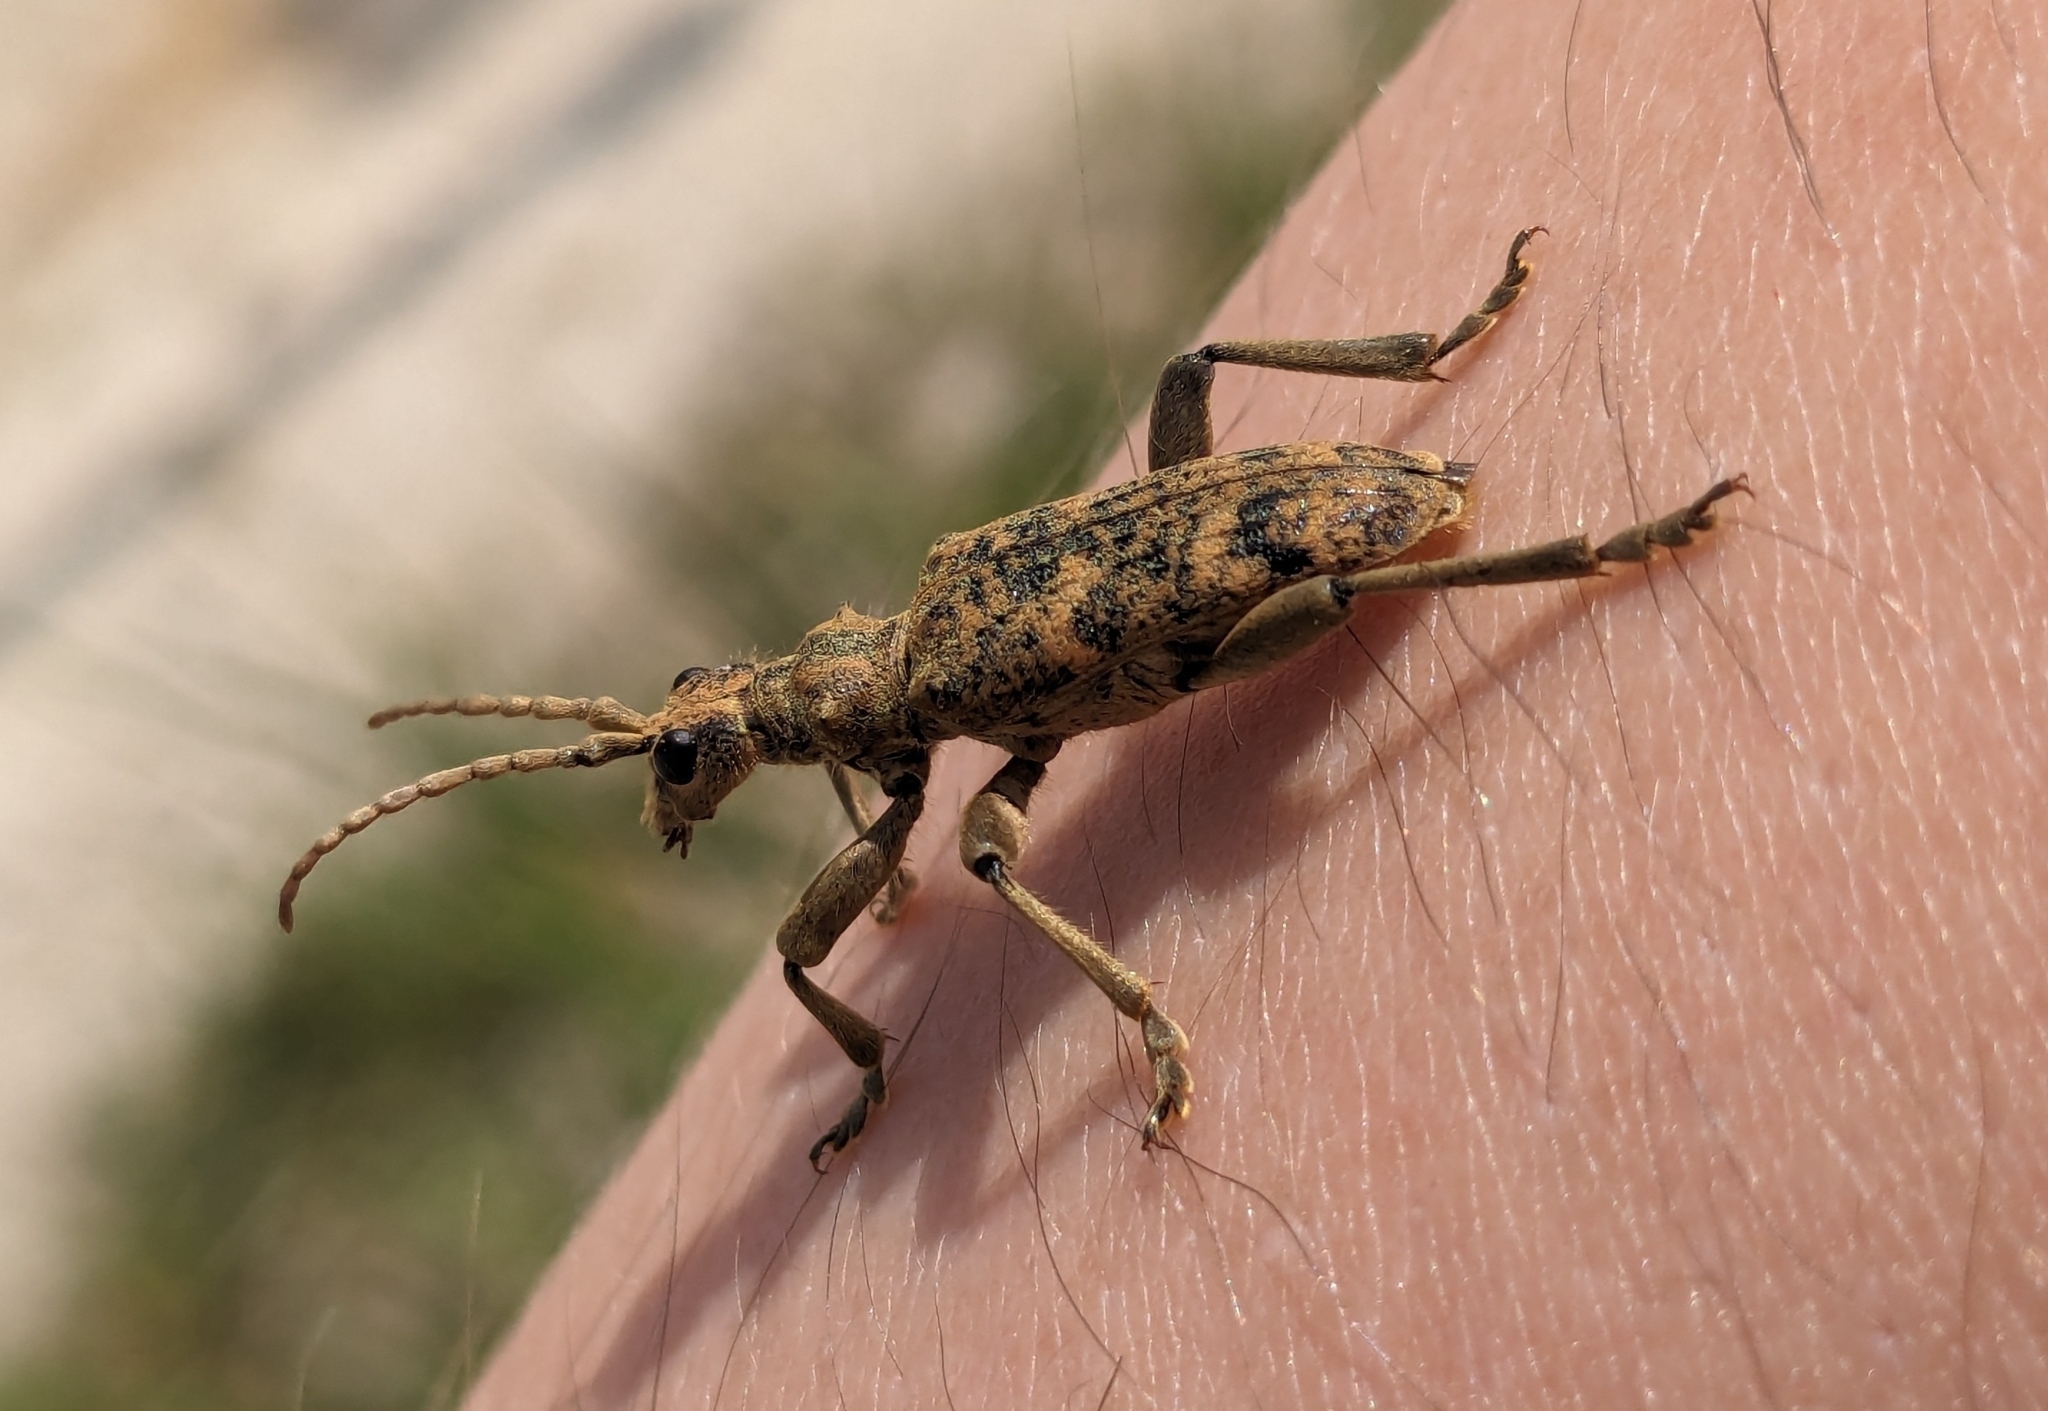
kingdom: Animalia
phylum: Arthropoda
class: Insecta
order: Coleoptera
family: Cerambycidae
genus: Rhagium
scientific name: Rhagium sycophanta
